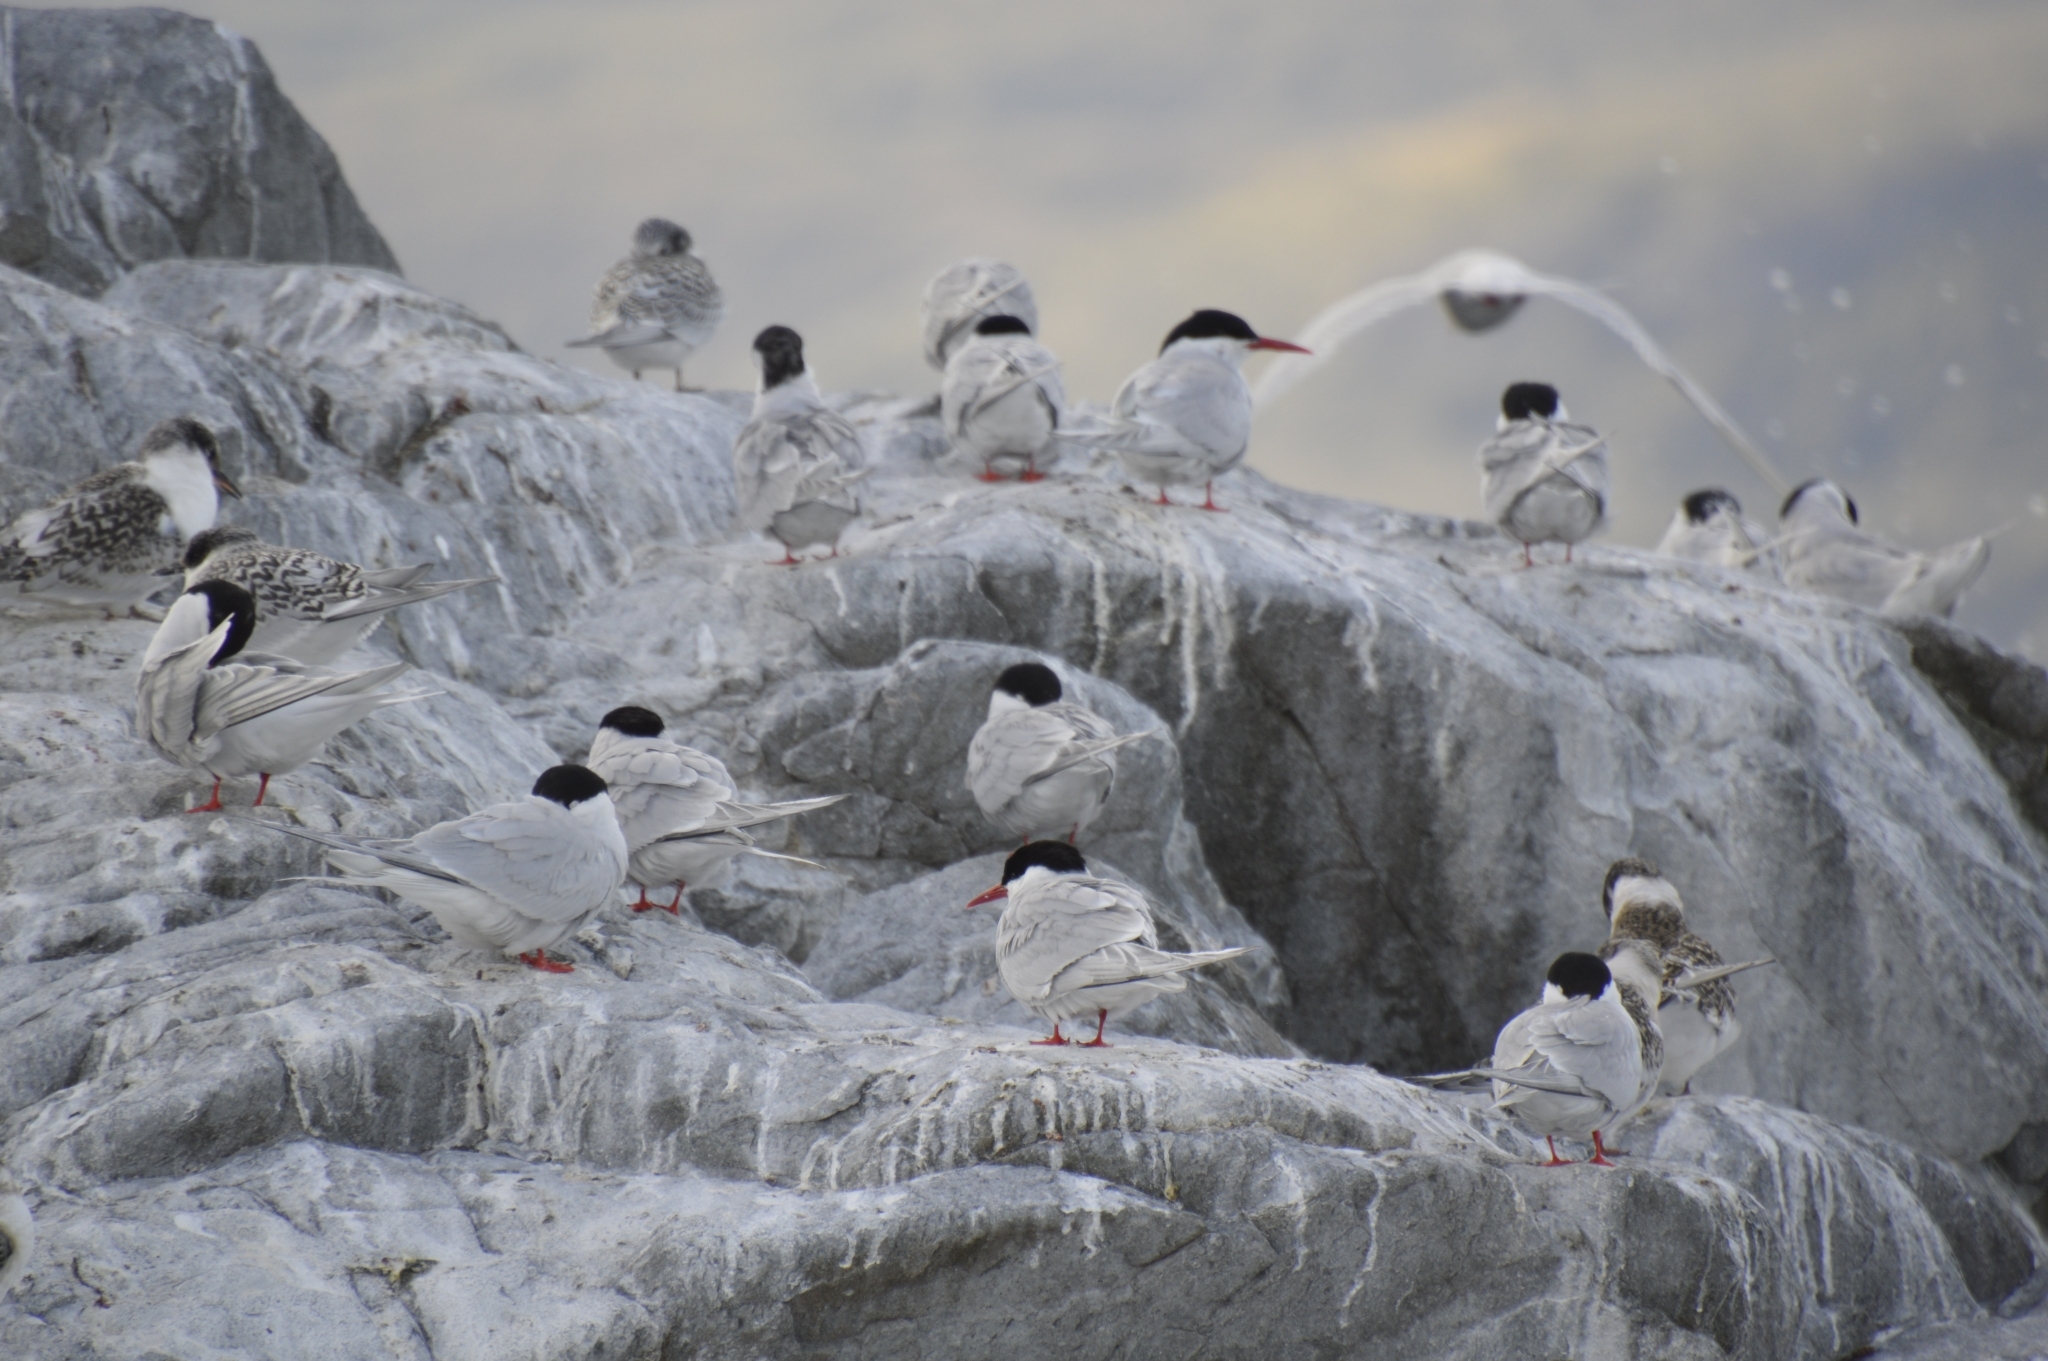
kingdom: Animalia
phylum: Chordata
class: Aves
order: Charadriiformes
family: Laridae
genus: Sterna
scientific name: Sterna hirundinacea
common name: South american tern
